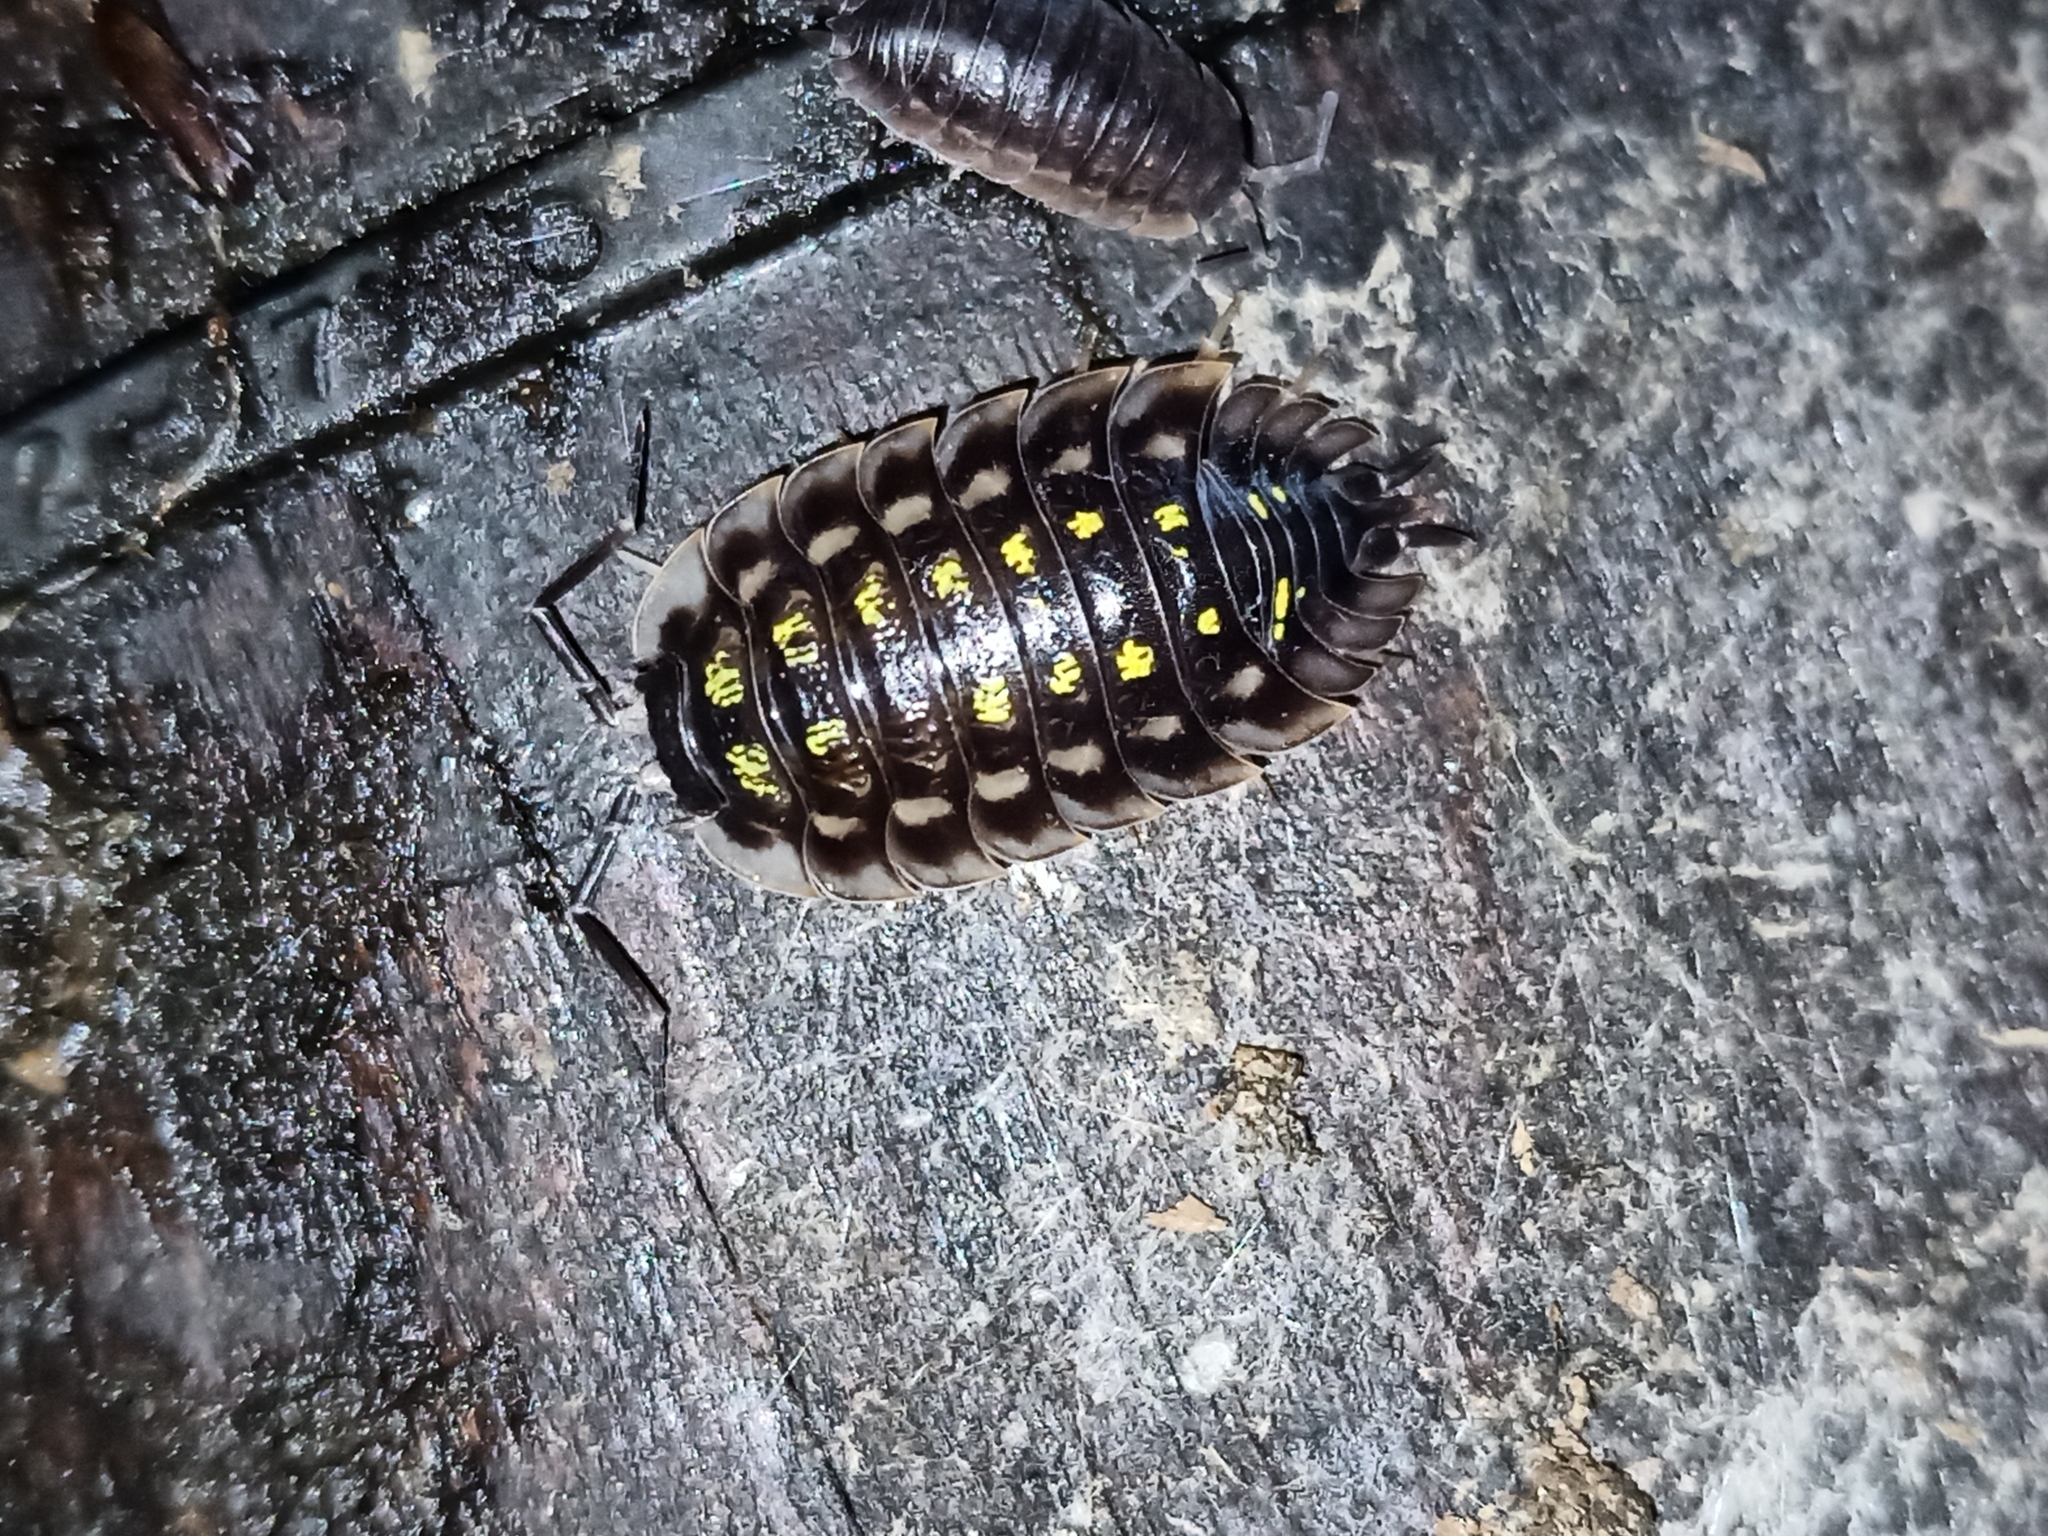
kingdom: Animalia
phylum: Arthropoda
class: Malacostraca
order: Isopoda
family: Oniscidae
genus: Oniscus
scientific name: Oniscus asellus
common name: Common shiny woodlouse
